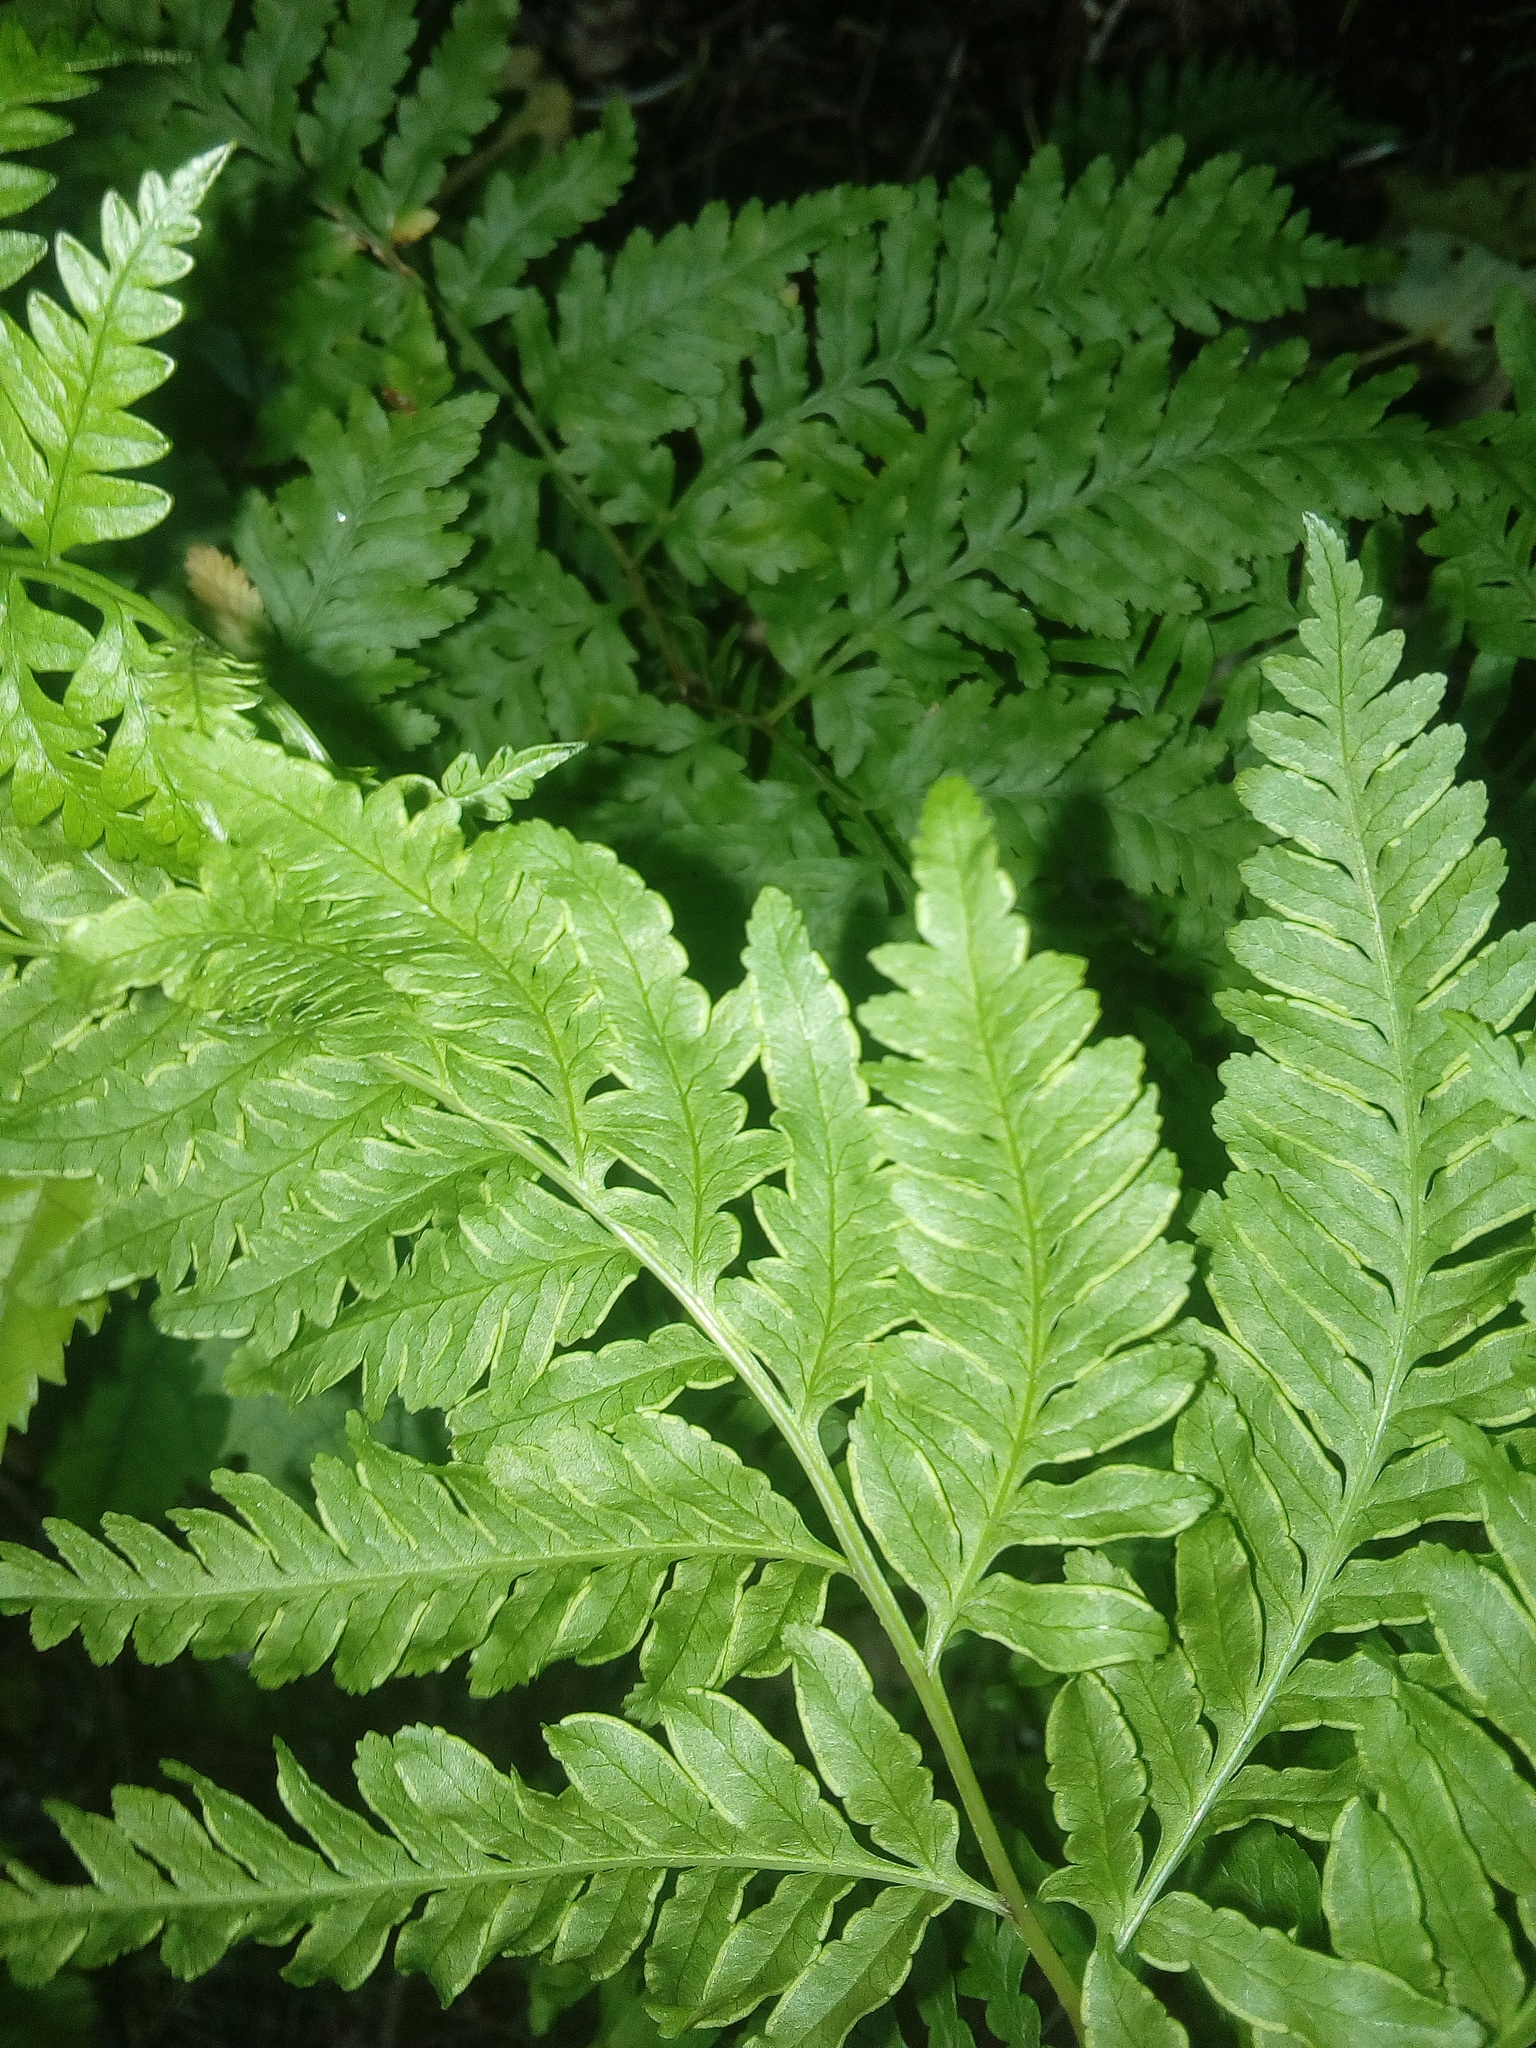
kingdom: Plantae
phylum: Tracheophyta
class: Polypodiopsida
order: Polypodiales
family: Pteridaceae
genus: Pteris
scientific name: Pteris tremula
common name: Australian brake
